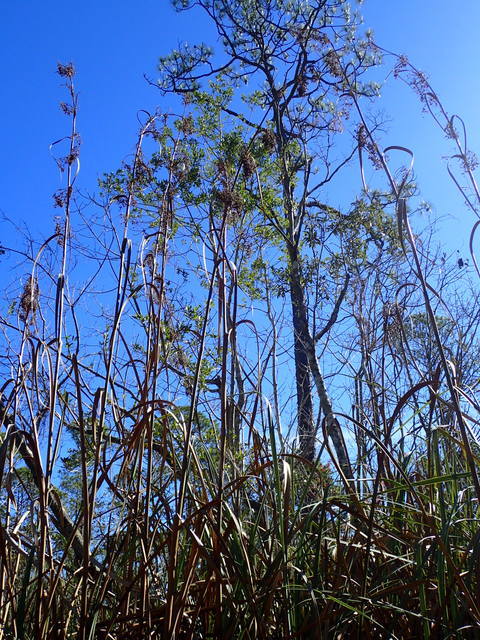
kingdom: Plantae
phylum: Tracheophyta
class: Liliopsida
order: Poales
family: Cyperaceae
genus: Cladium
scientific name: Cladium mariscus
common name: Great fen-sedge
